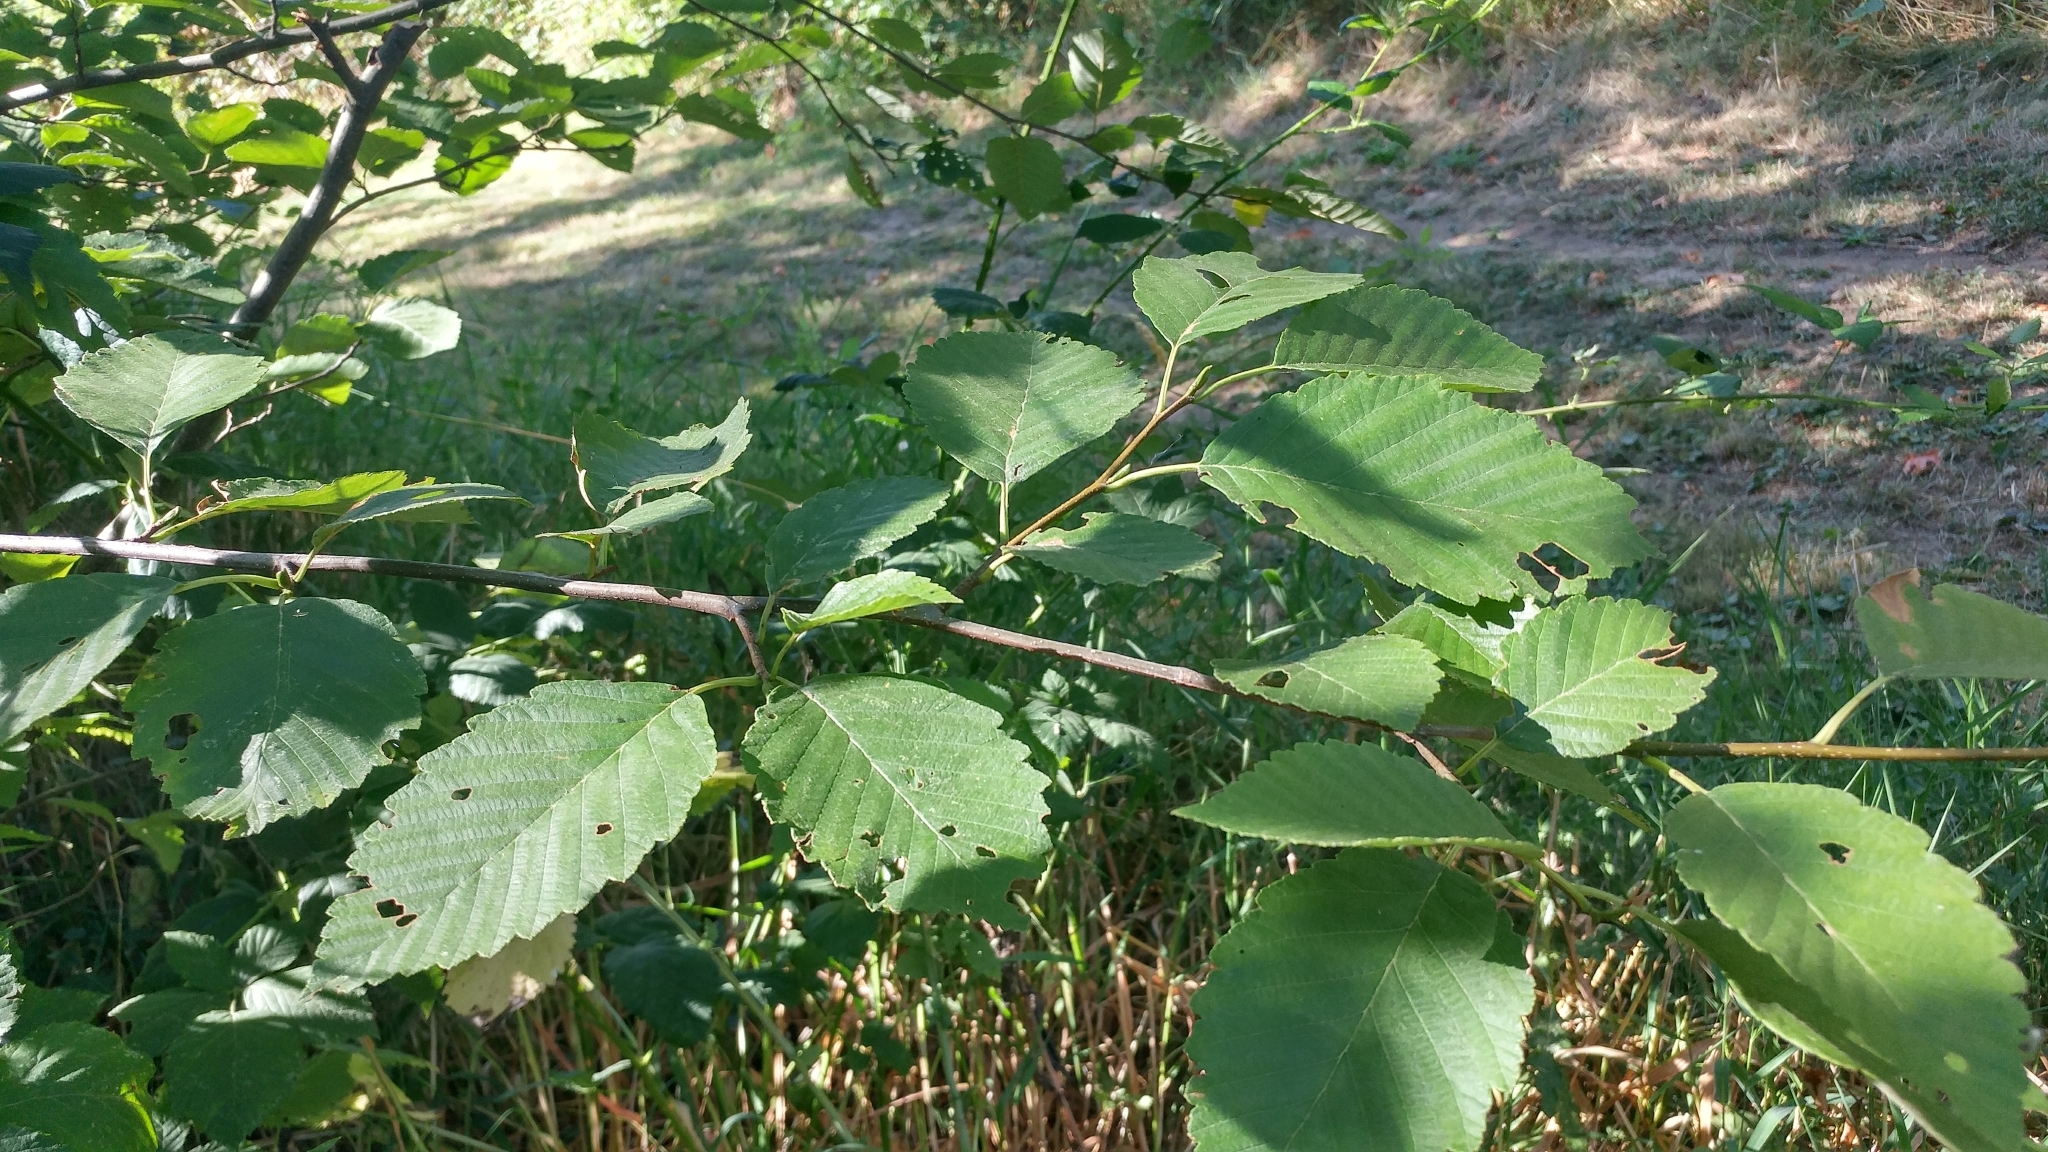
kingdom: Plantae
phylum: Tracheophyta
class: Magnoliopsida
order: Fagales
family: Betulaceae
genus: Alnus
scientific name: Alnus rubra
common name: Red alder
